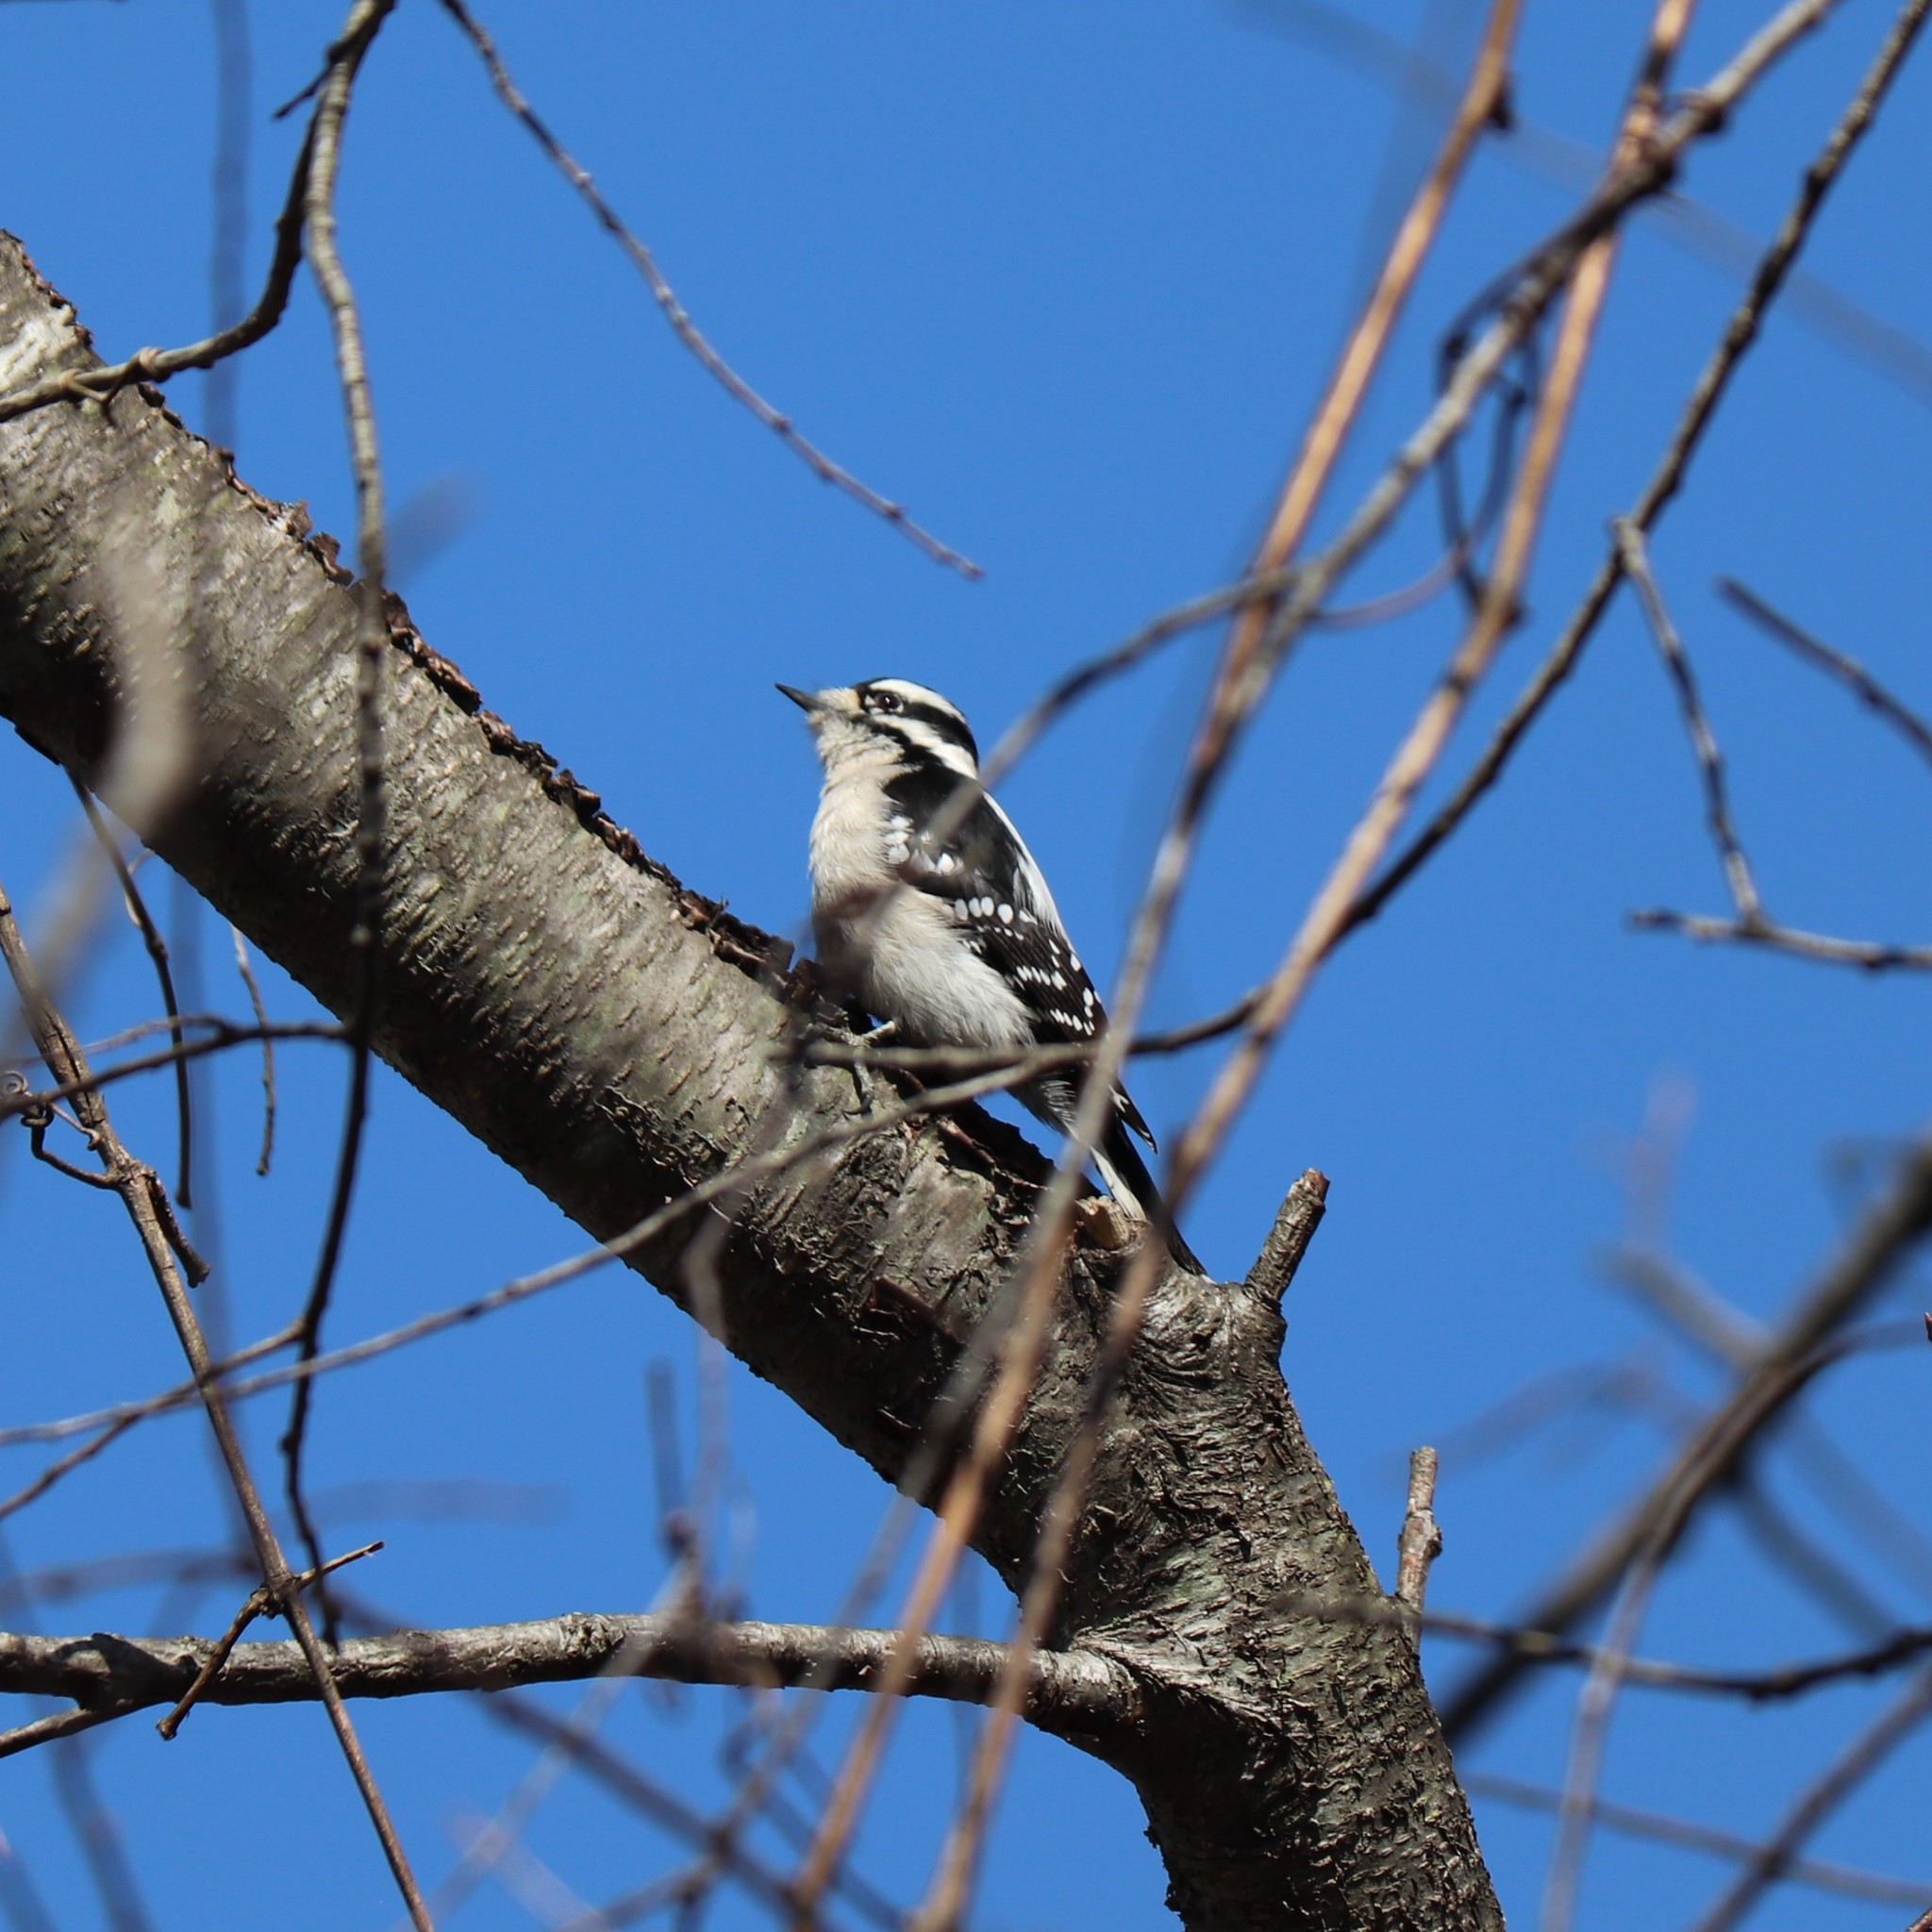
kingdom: Animalia
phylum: Chordata
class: Aves
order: Piciformes
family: Picidae
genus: Dryobates
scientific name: Dryobates pubescens
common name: Downy woodpecker
